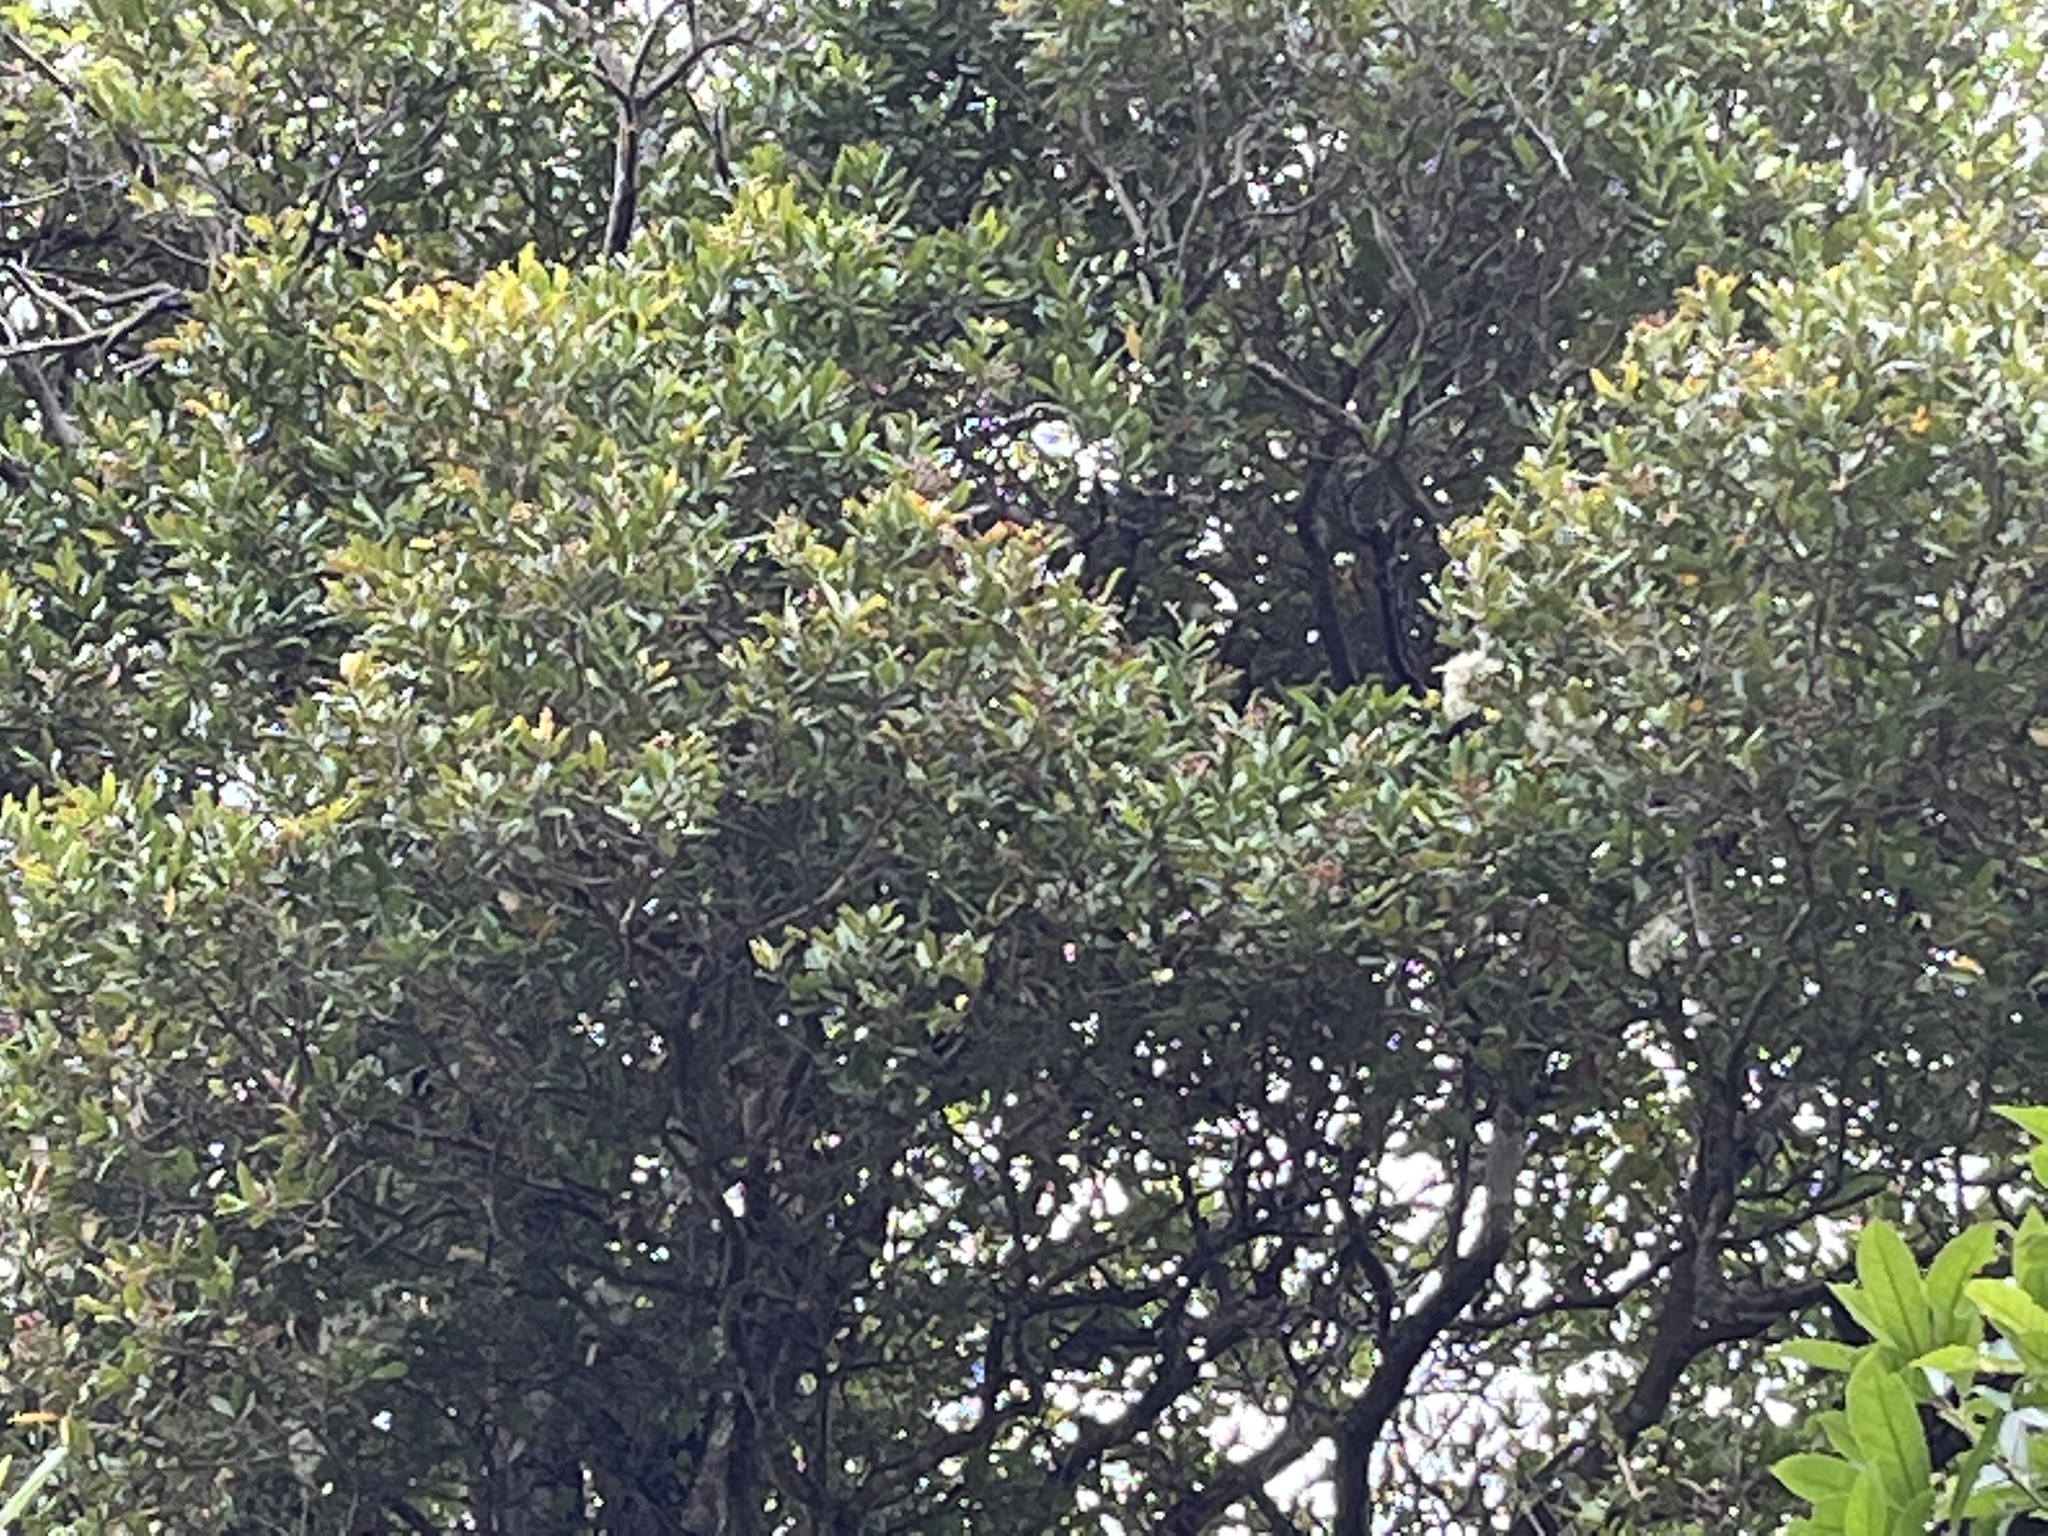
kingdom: Plantae
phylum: Tracheophyta
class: Magnoliopsida
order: Myrtales
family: Myrtaceae
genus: Syzygium
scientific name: Syzygium maire
